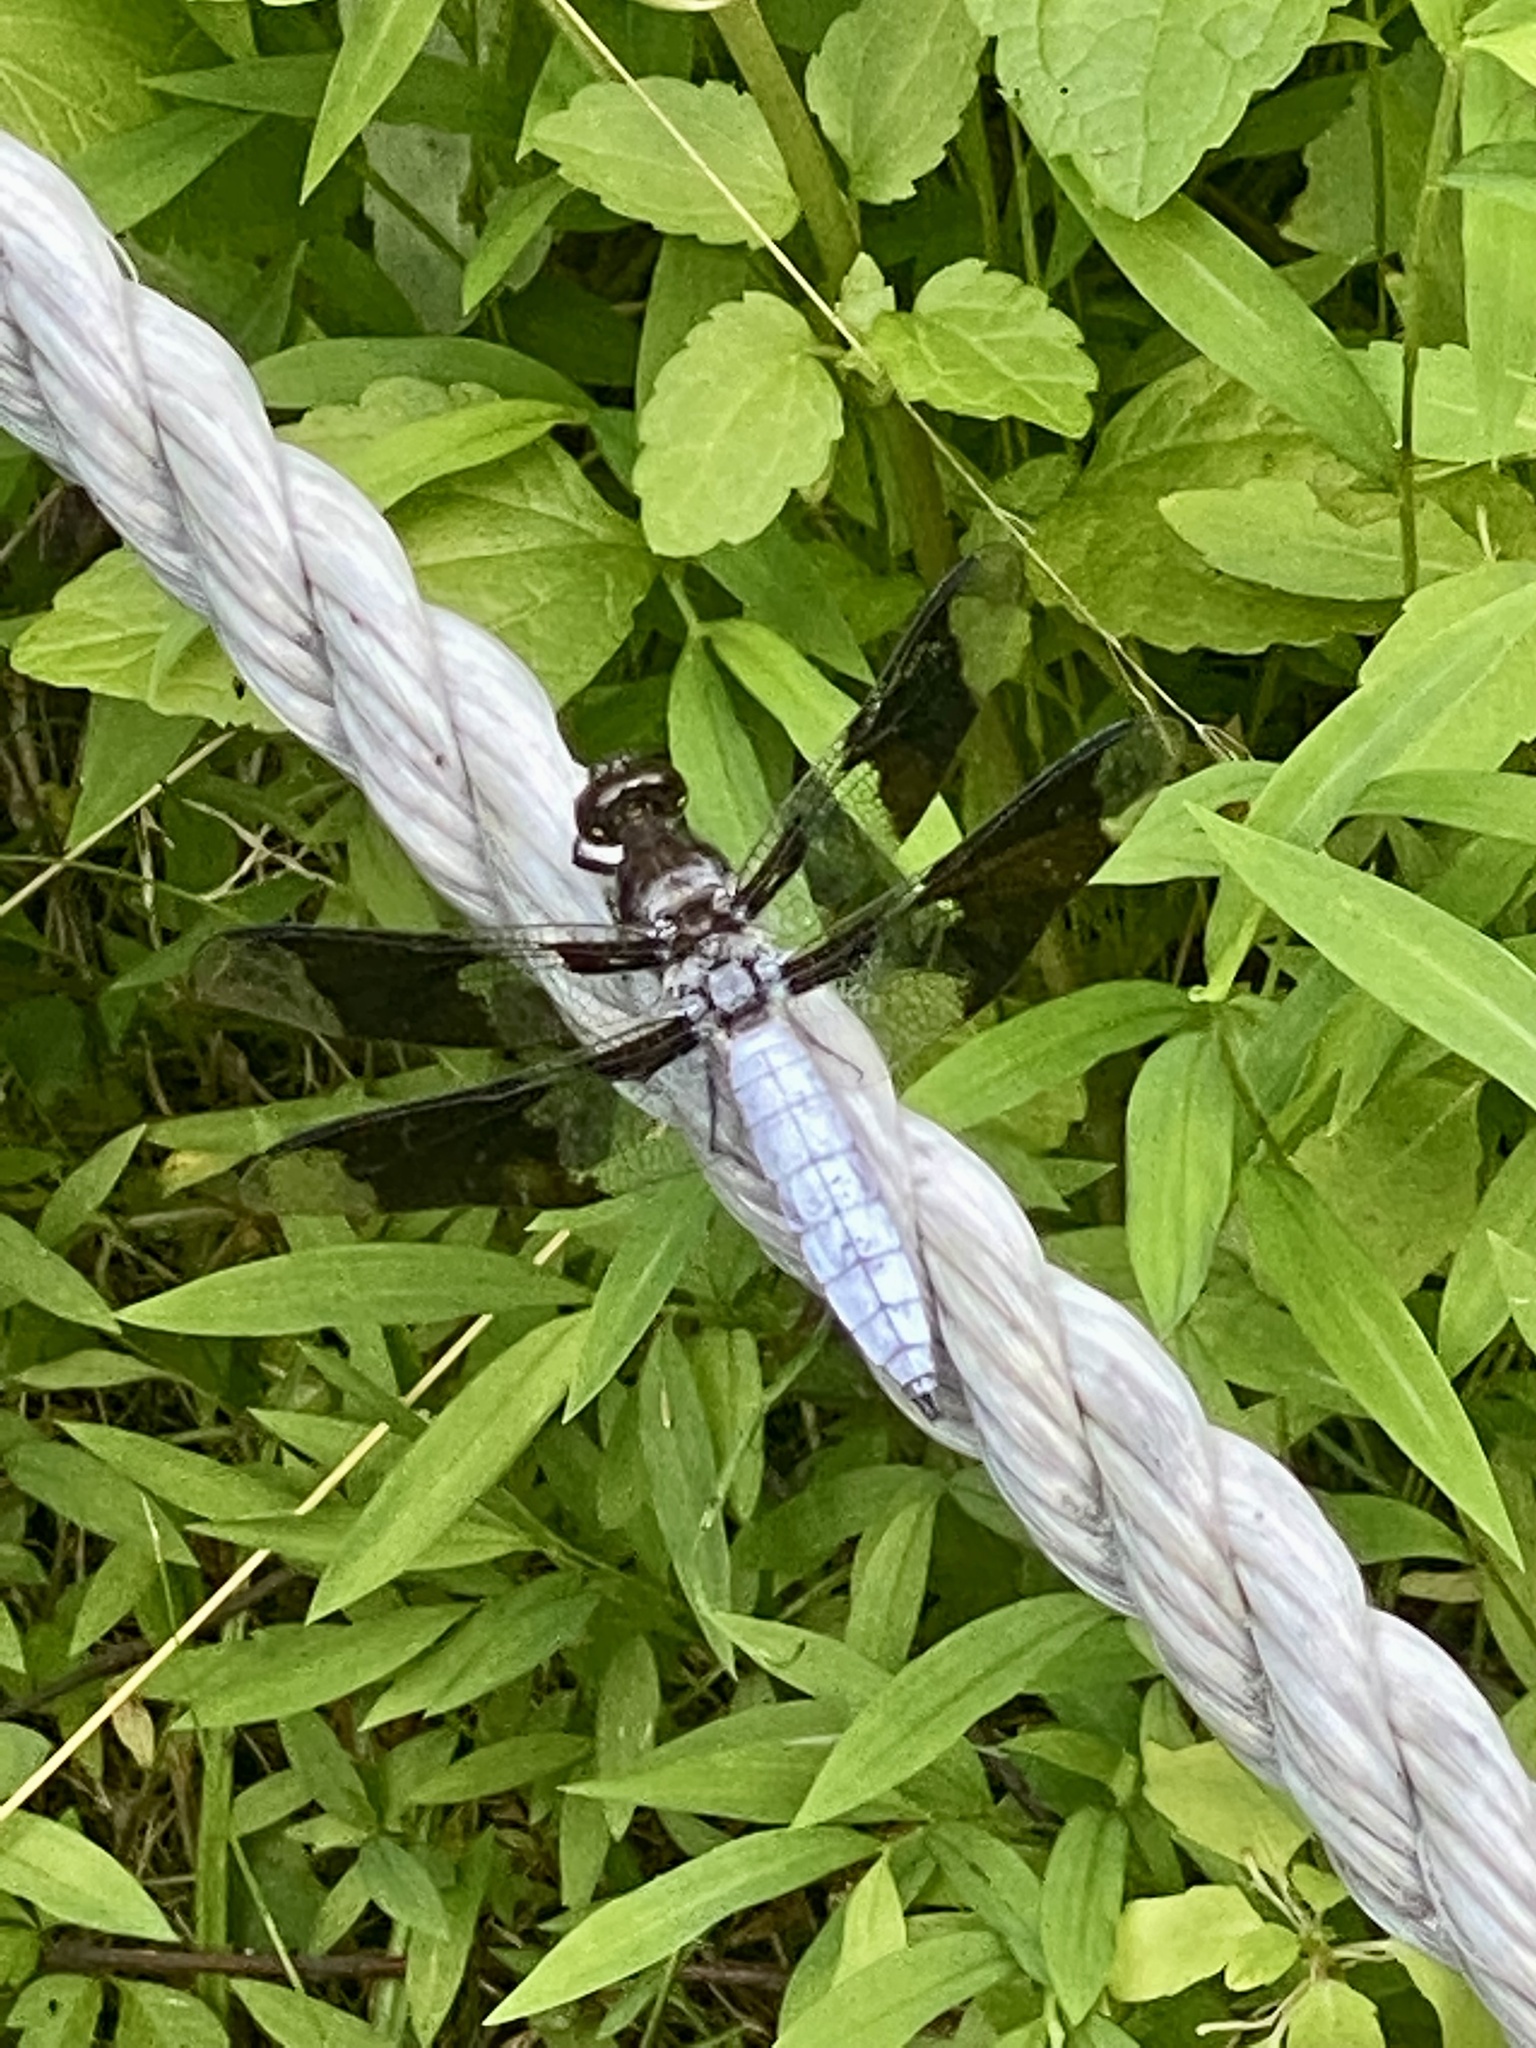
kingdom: Animalia
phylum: Arthropoda
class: Insecta
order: Odonata
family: Libellulidae
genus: Plathemis
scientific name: Plathemis lydia
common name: Common whitetail
